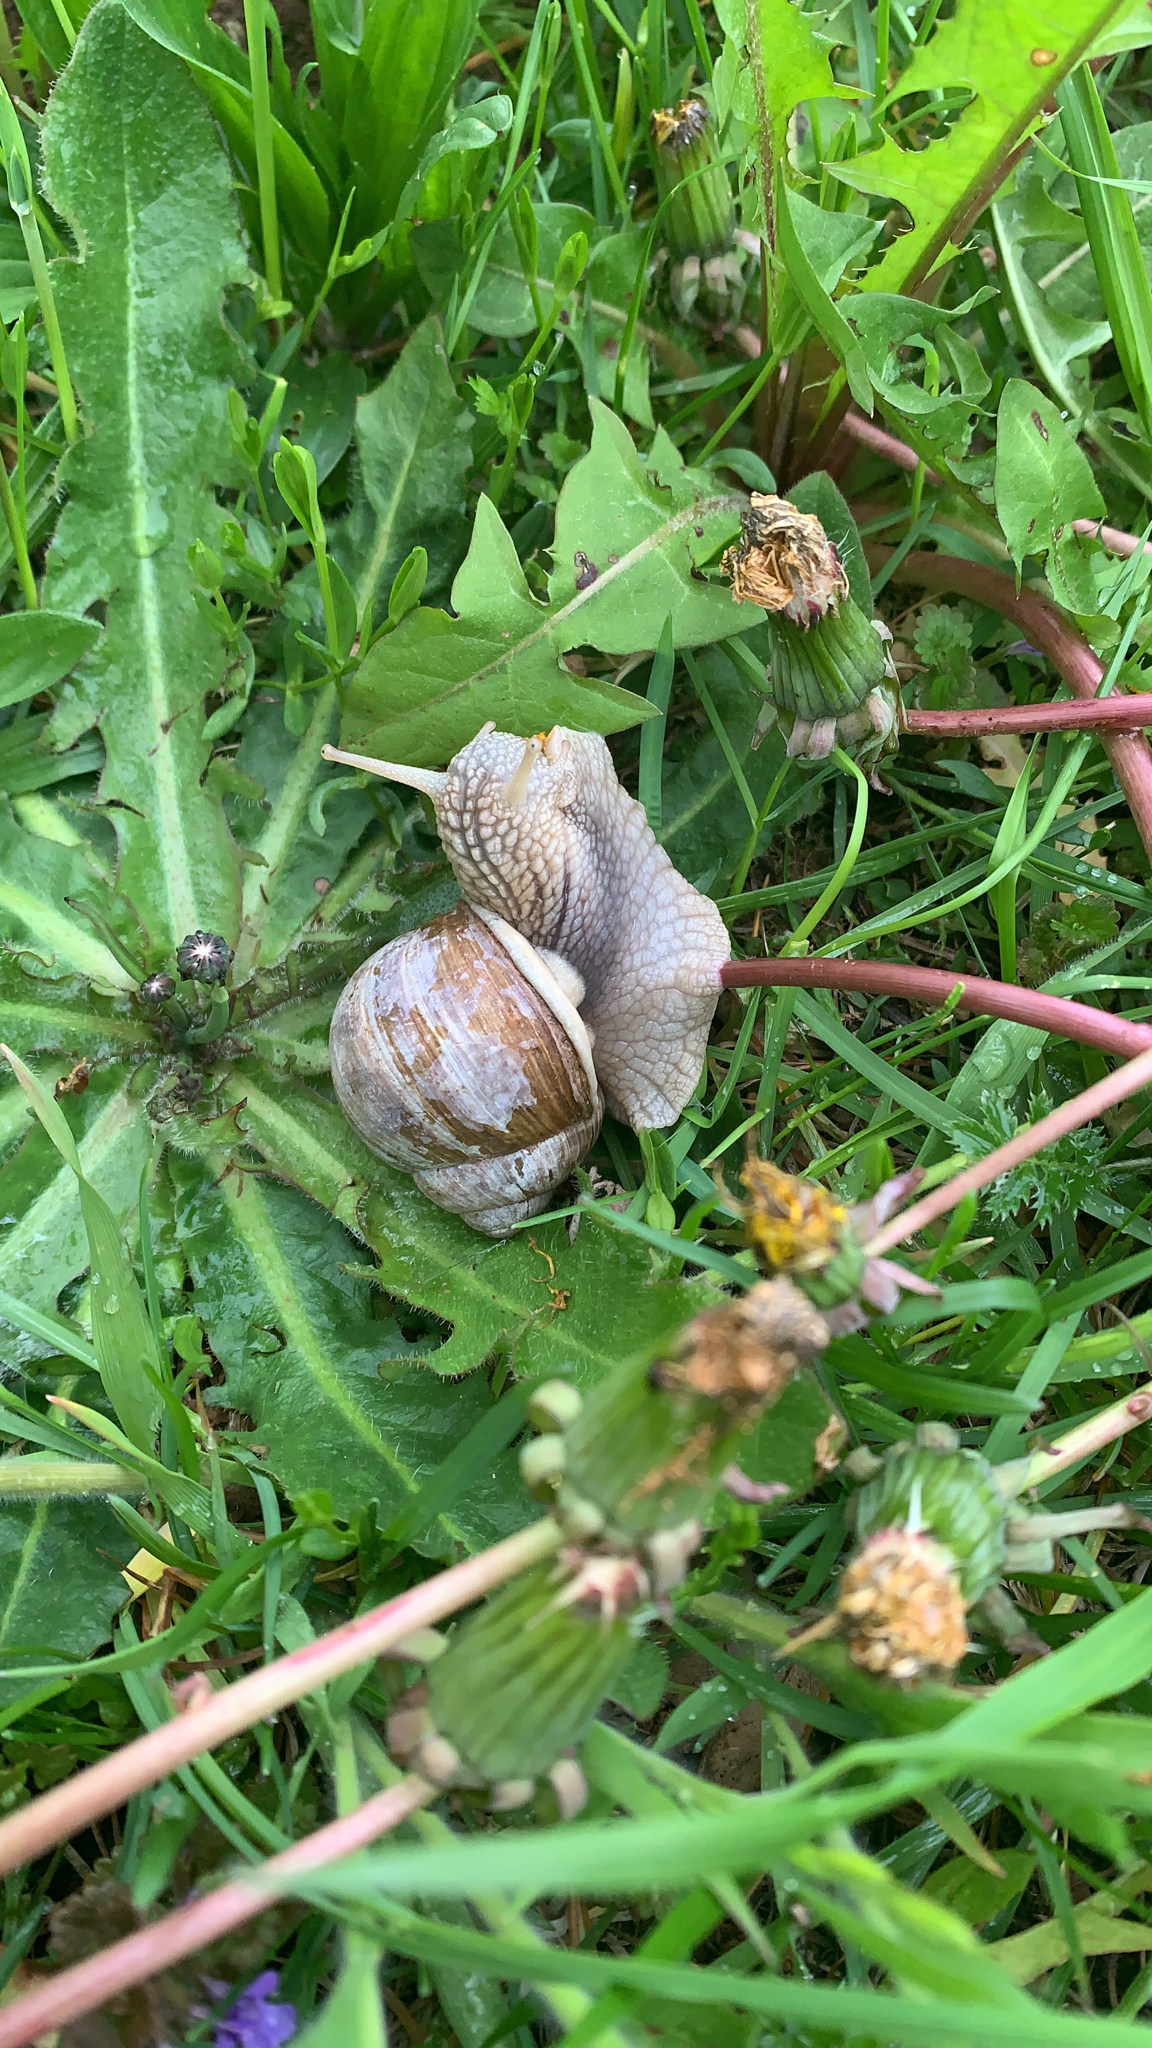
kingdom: Animalia
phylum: Mollusca
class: Gastropoda
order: Stylommatophora
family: Helicidae
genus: Helix
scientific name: Helix pomatia
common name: Roman snail
